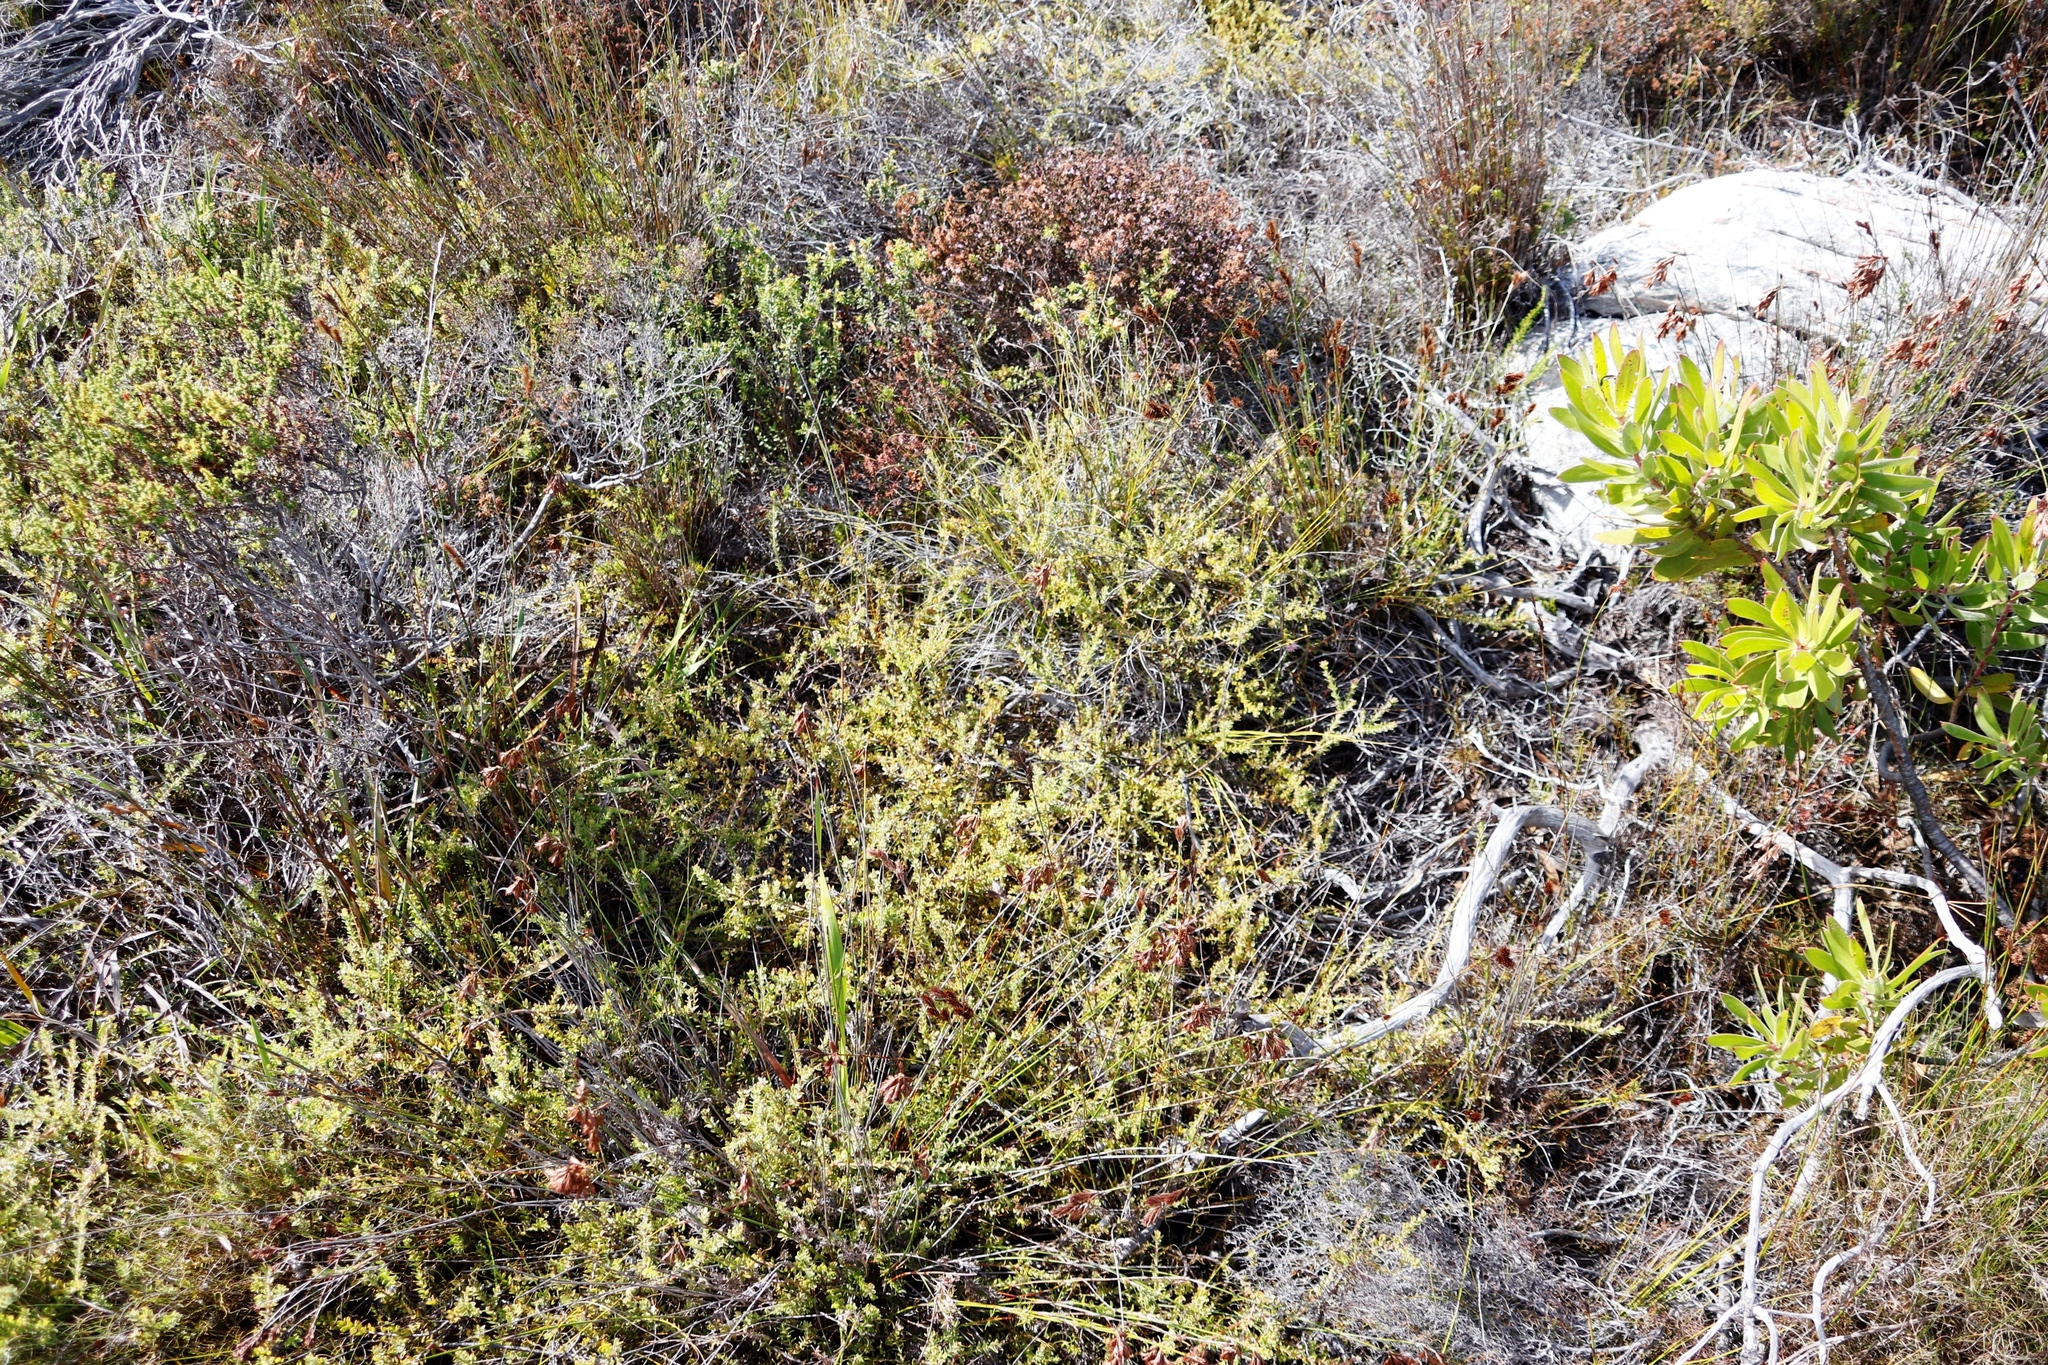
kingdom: Plantae
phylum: Tracheophyta
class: Magnoliopsida
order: Proteales
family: Proteaceae
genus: Diastella
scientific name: Diastella divaricata
